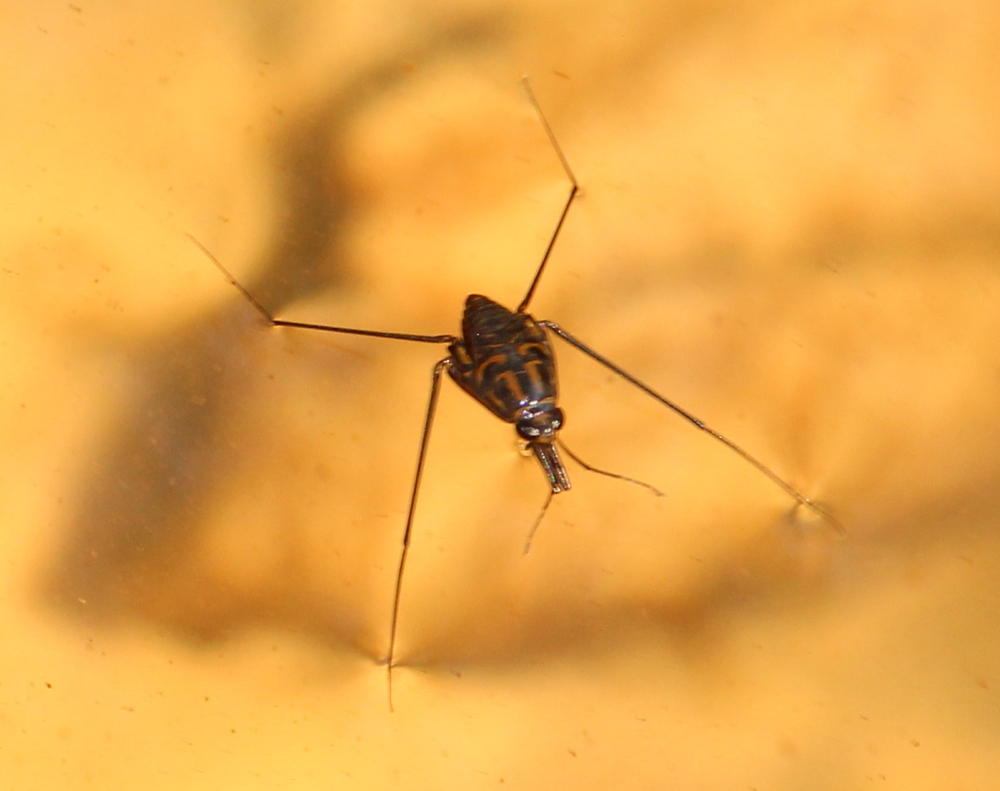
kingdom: Animalia
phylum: Arthropoda
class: Insecta
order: Hemiptera
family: Gerridae
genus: Eurymetra
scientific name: Eurymetra natalensis
